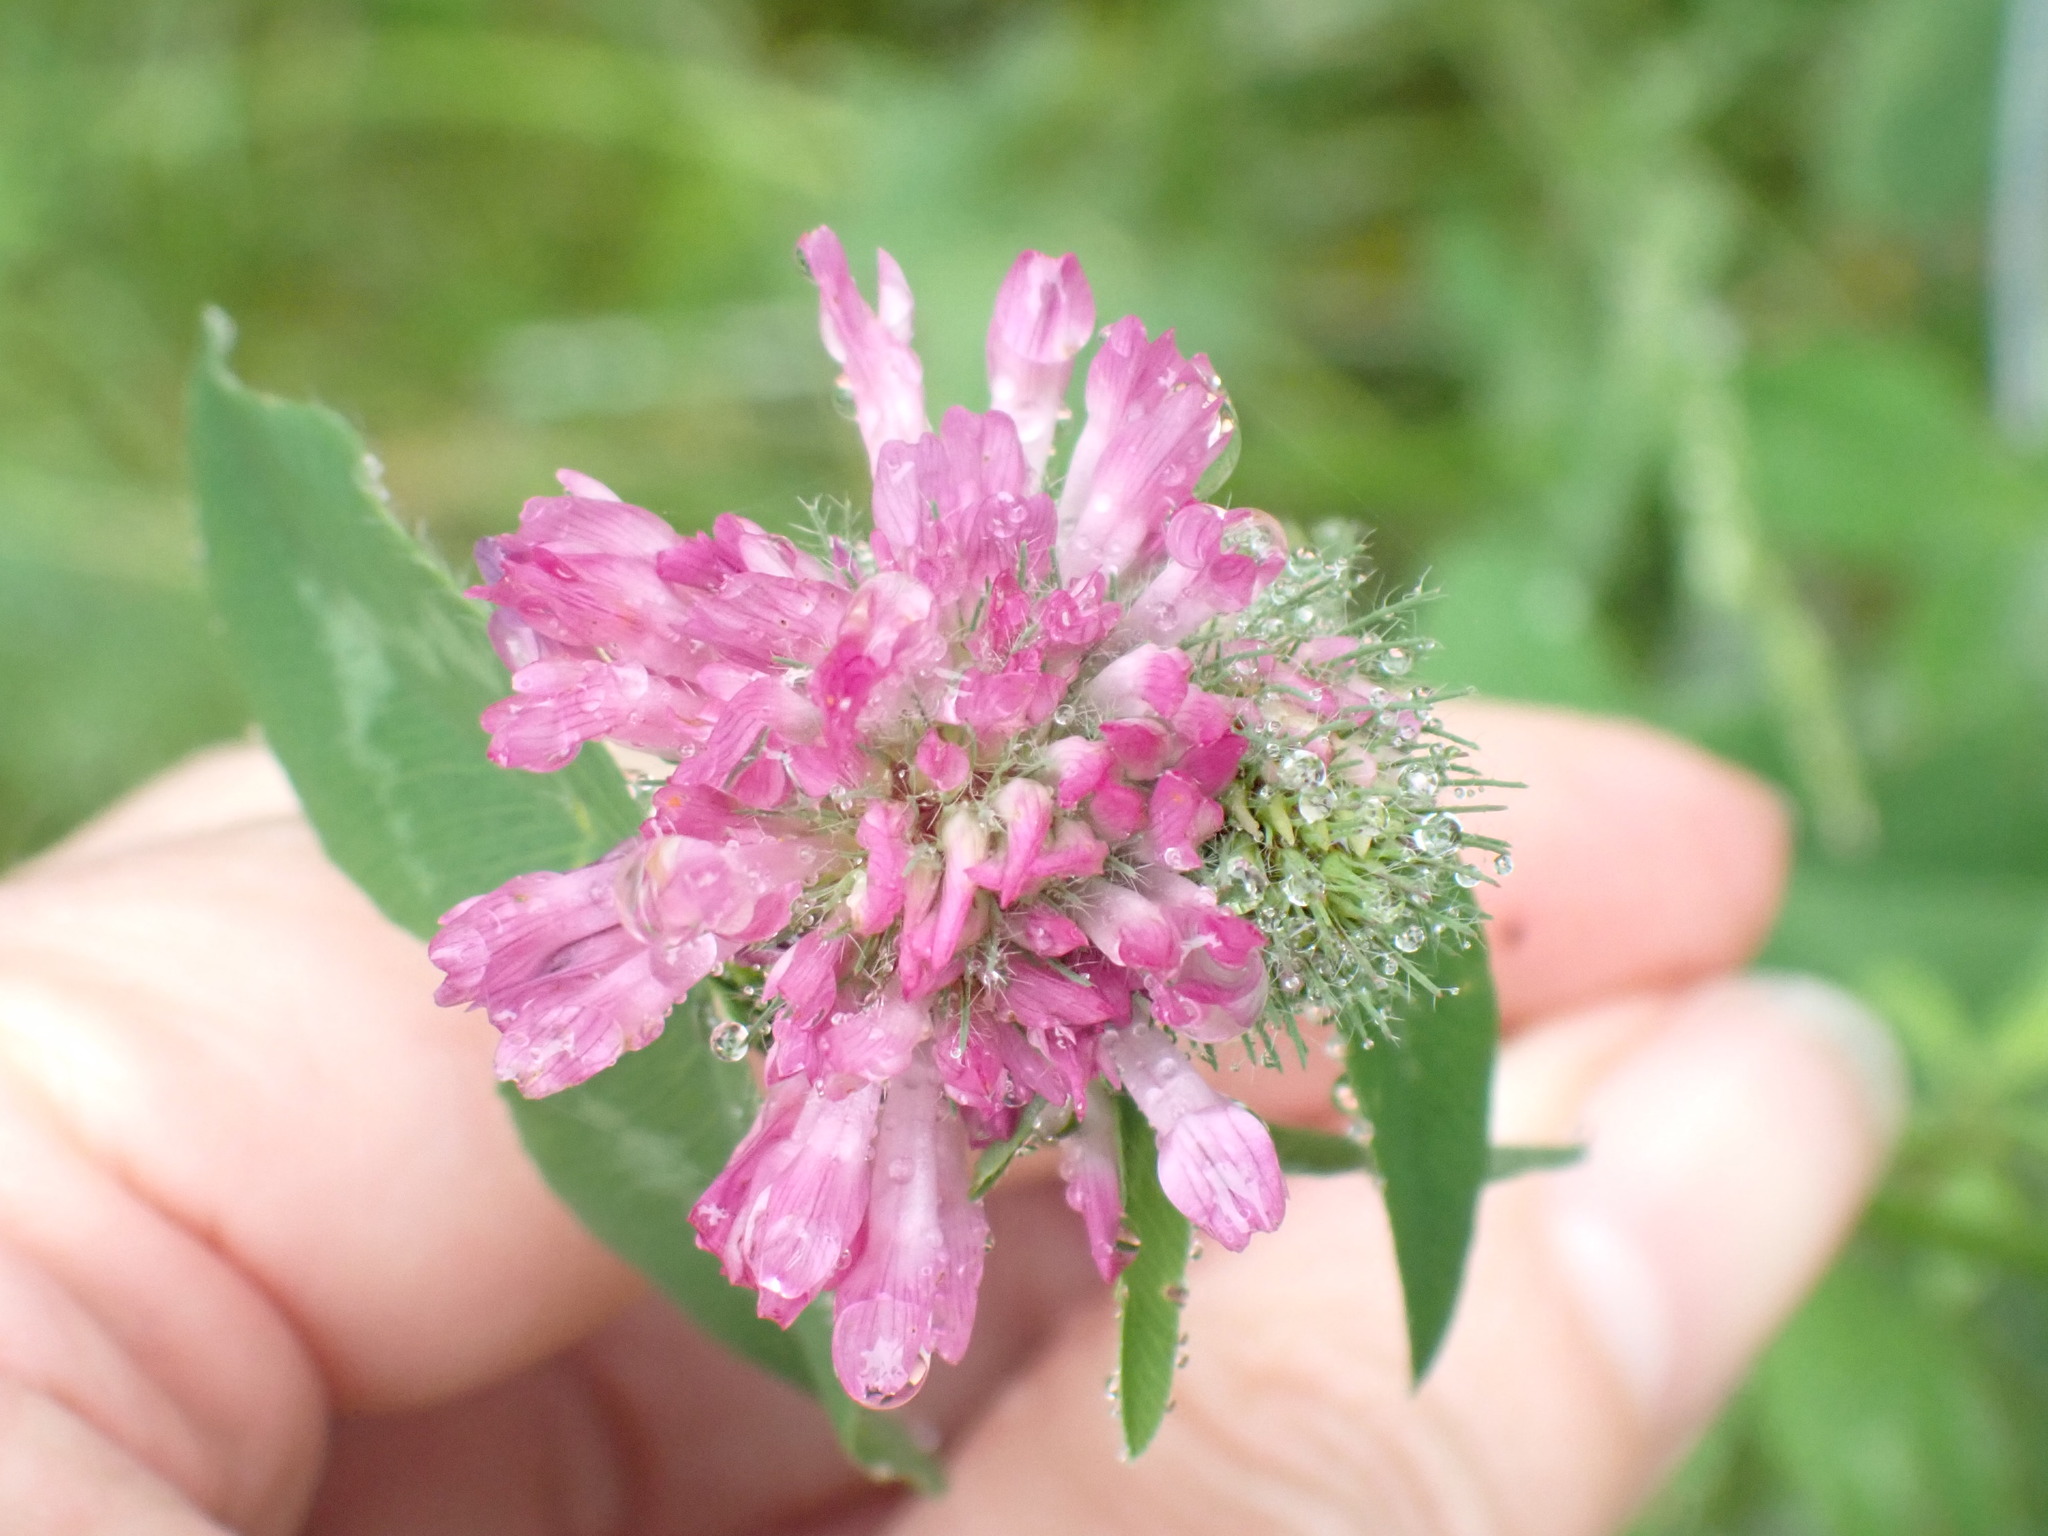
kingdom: Plantae
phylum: Tracheophyta
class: Magnoliopsida
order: Fabales
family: Fabaceae
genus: Trifolium
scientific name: Trifolium pratense
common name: Red clover
